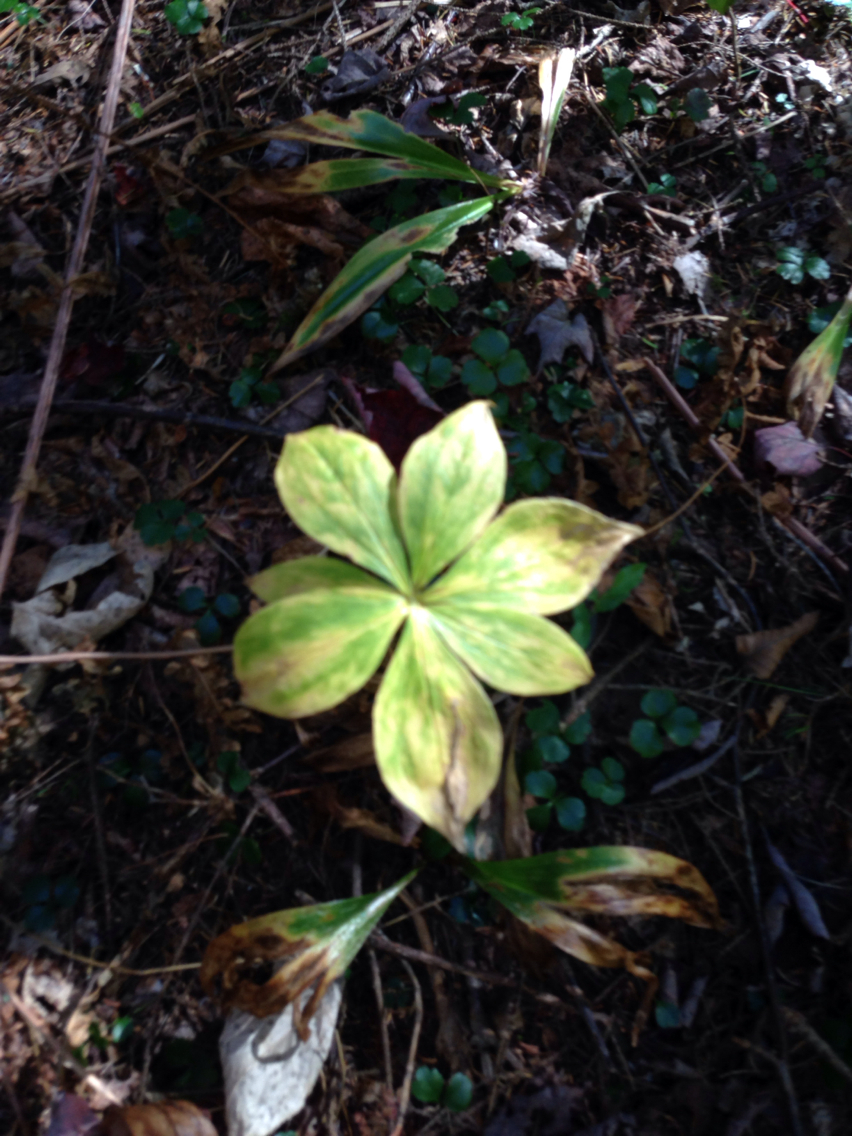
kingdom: Plantae
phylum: Tracheophyta
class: Liliopsida
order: Liliales
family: Liliaceae
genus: Medeola
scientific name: Medeola virginiana
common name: Indian cucumber-root
